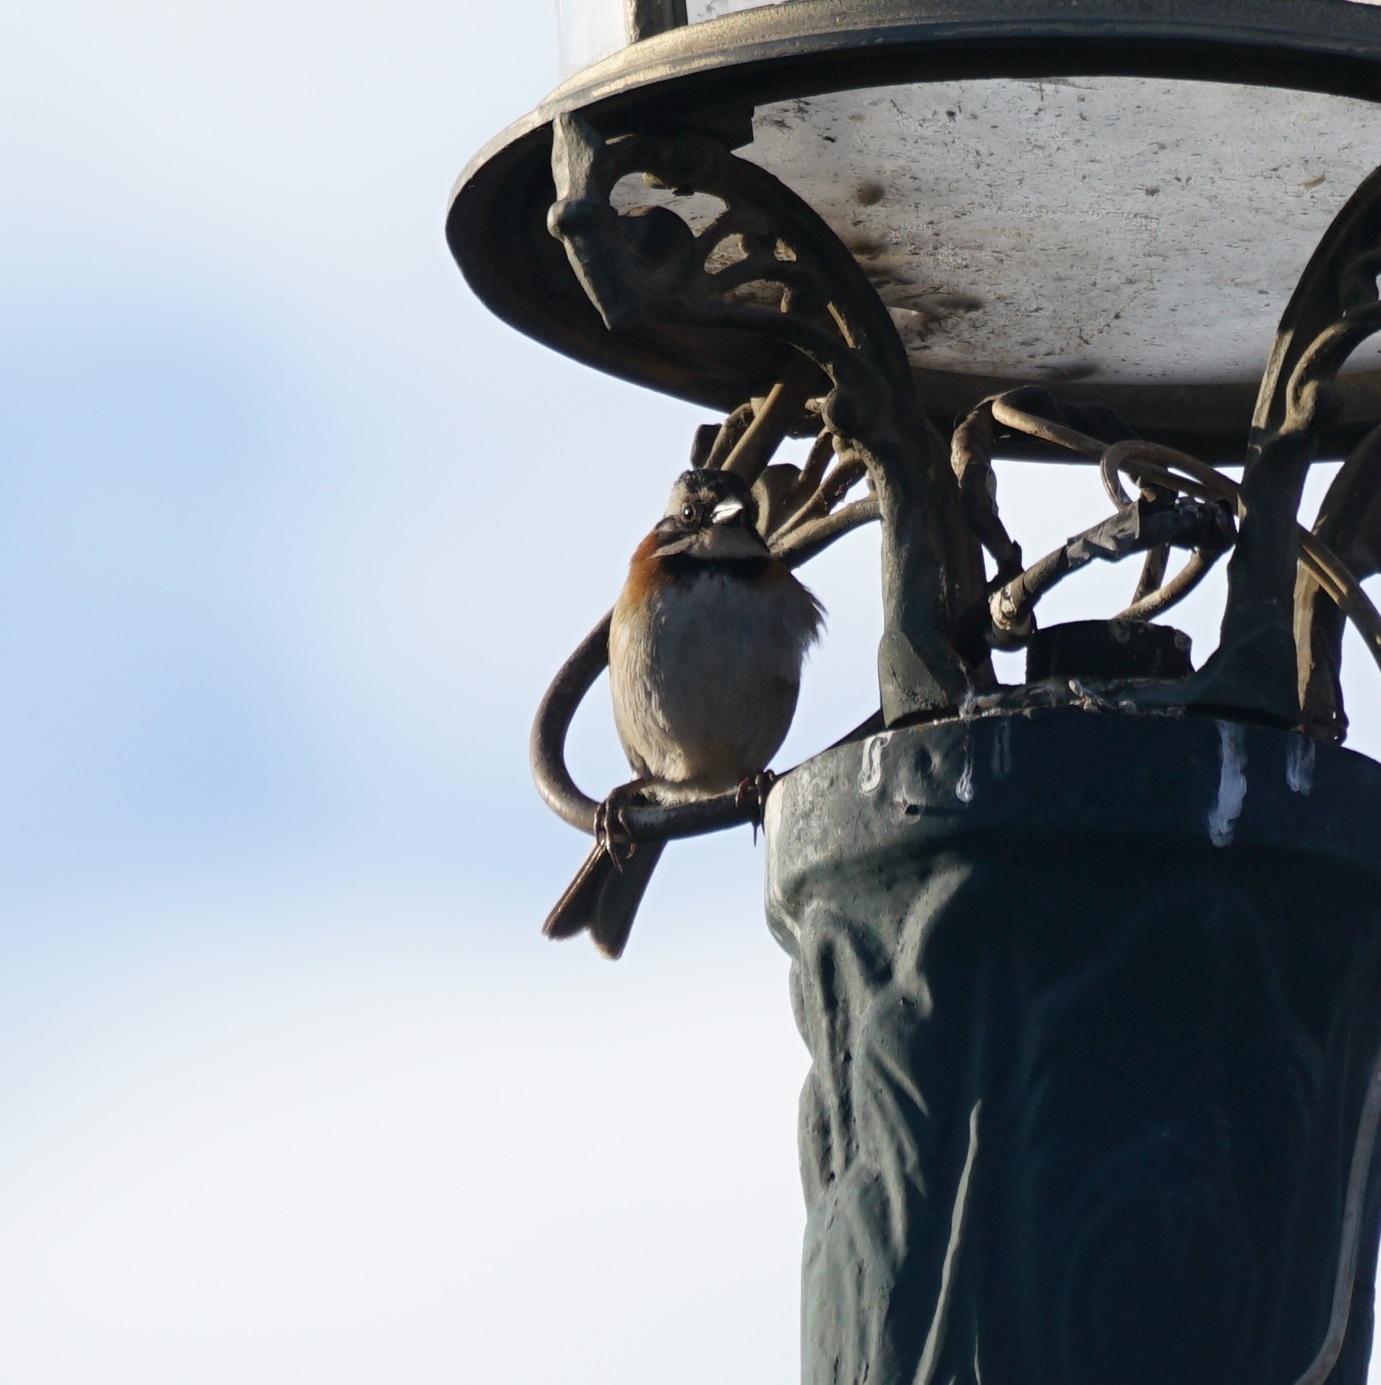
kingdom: Animalia
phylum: Chordata
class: Aves
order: Passeriformes
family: Passerellidae
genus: Zonotrichia
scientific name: Zonotrichia capensis
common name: Rufous-collared sparrow
